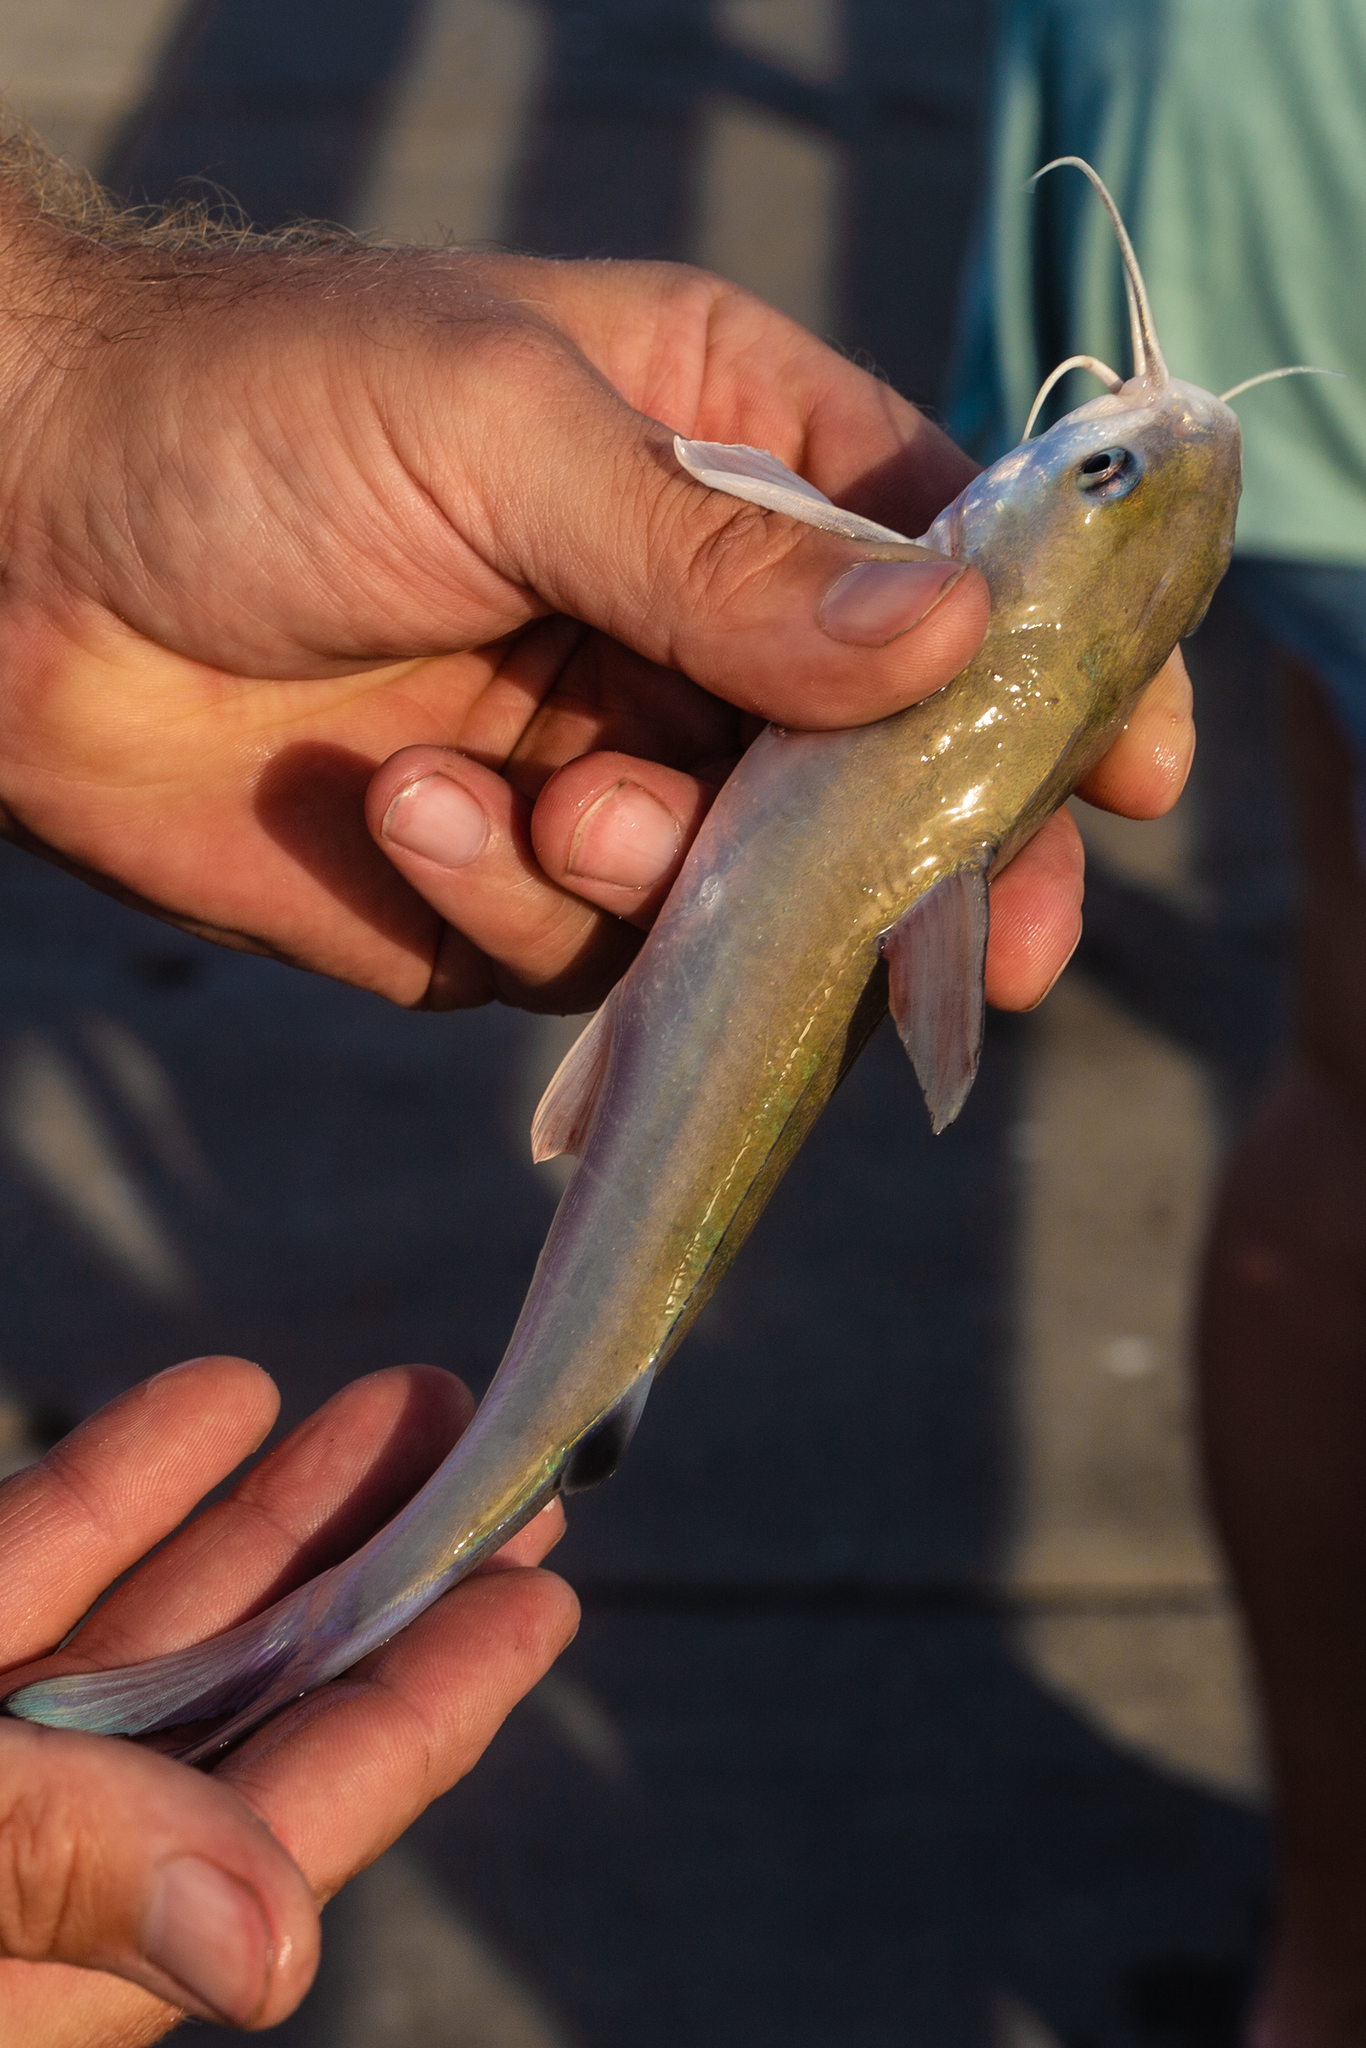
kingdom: Animalia
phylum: Chordata
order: Siluriformes
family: Ariidae
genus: Ariopsis
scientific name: Ariopsis felis
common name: Hardhead catfish
